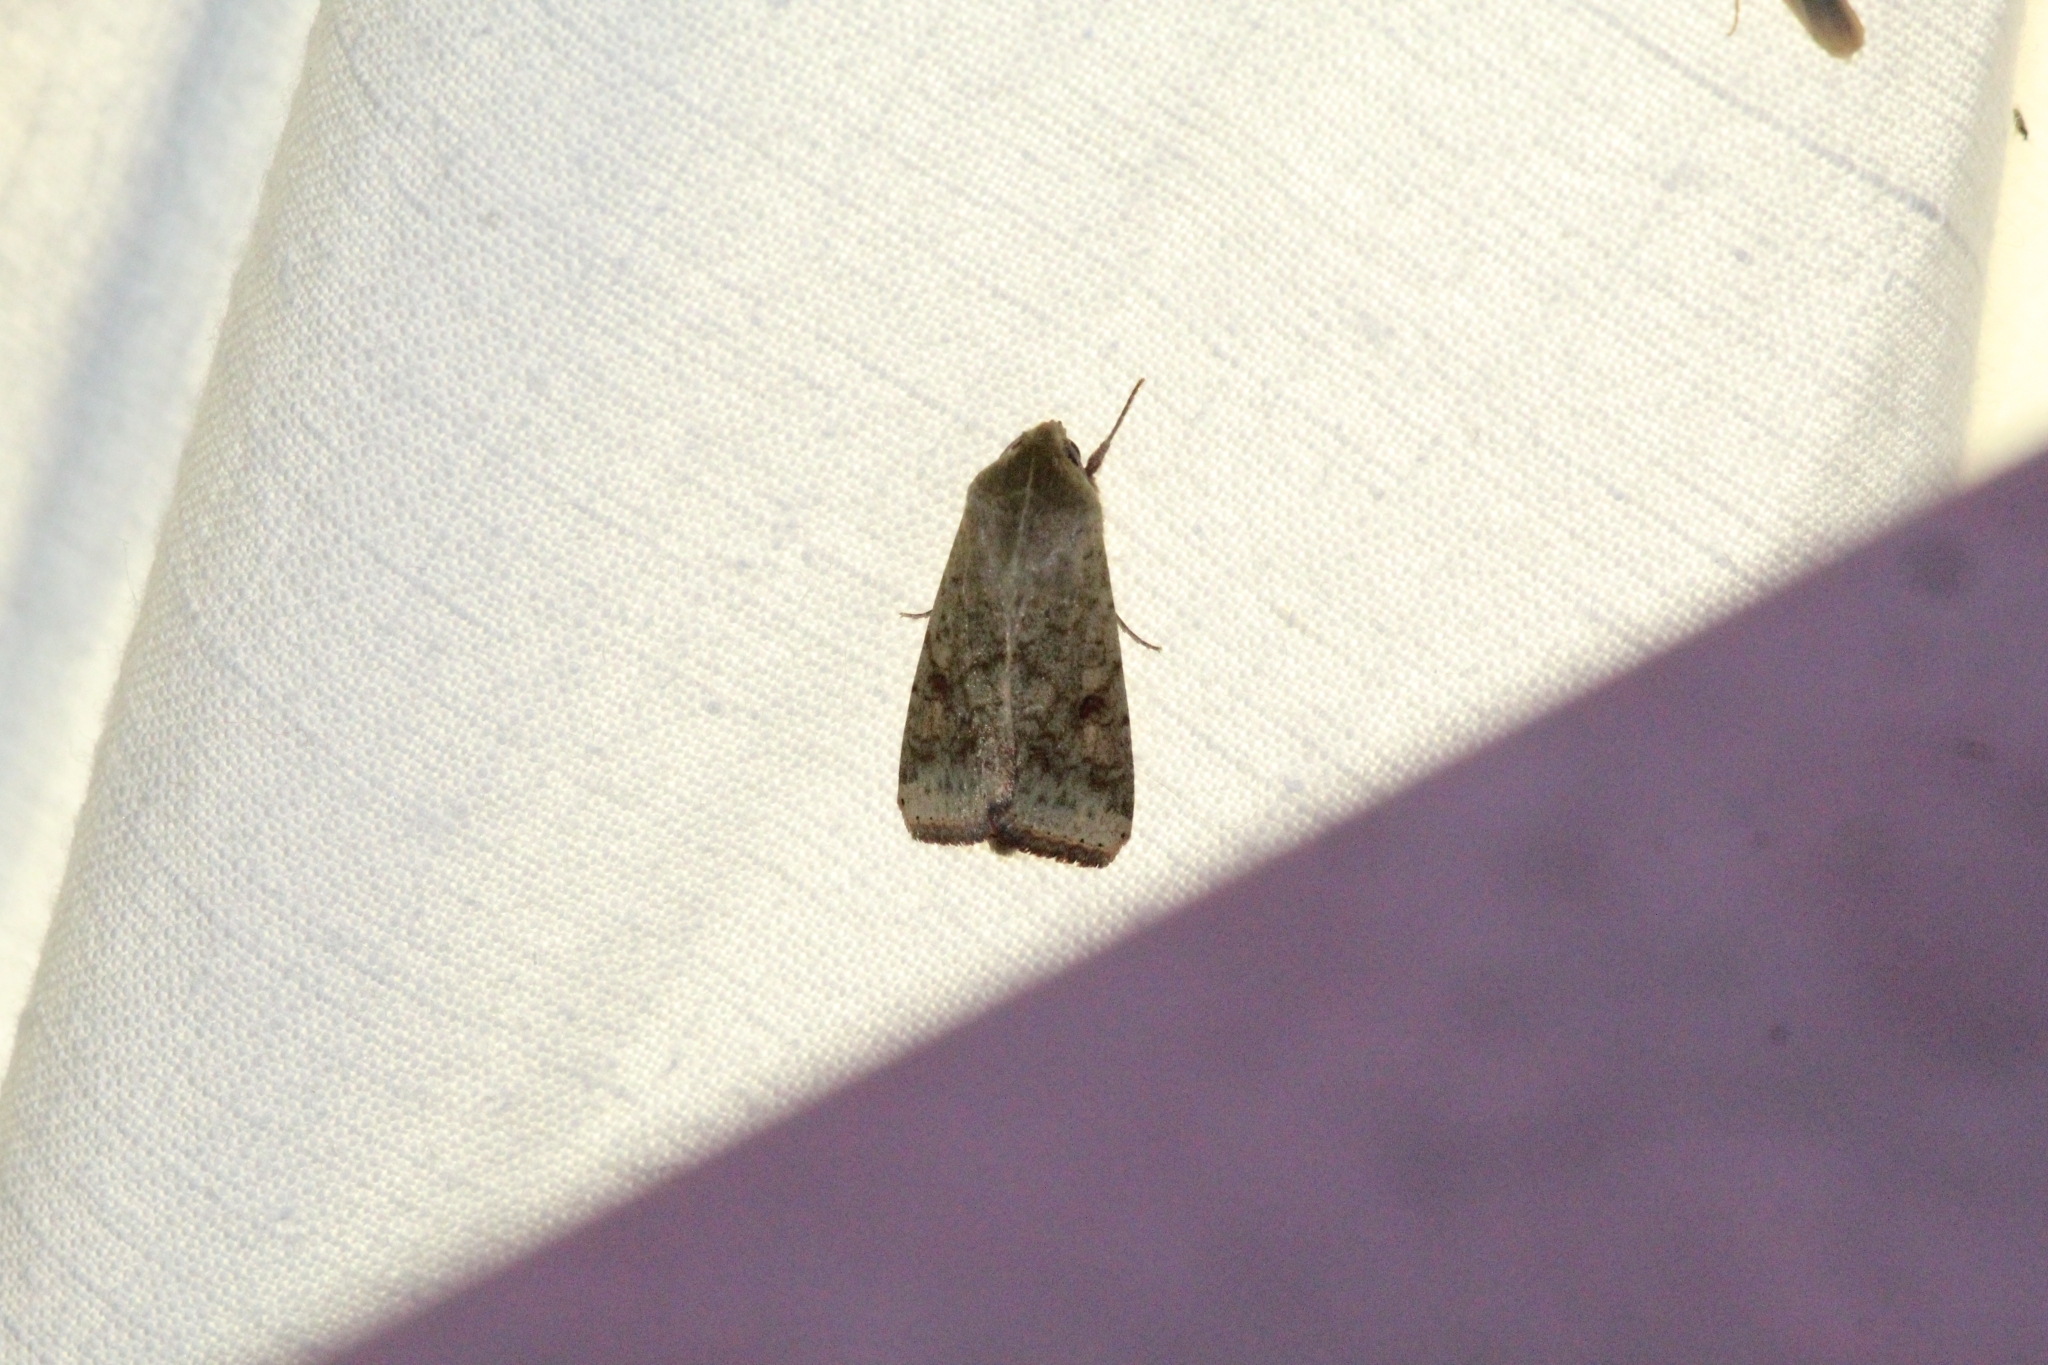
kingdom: Animalia
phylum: Arthropoda
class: Insecta
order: Lepidoptera
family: Noctuidae
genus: Helicoverpa
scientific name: Helicoverpa armigera
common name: Cotton bollworm
